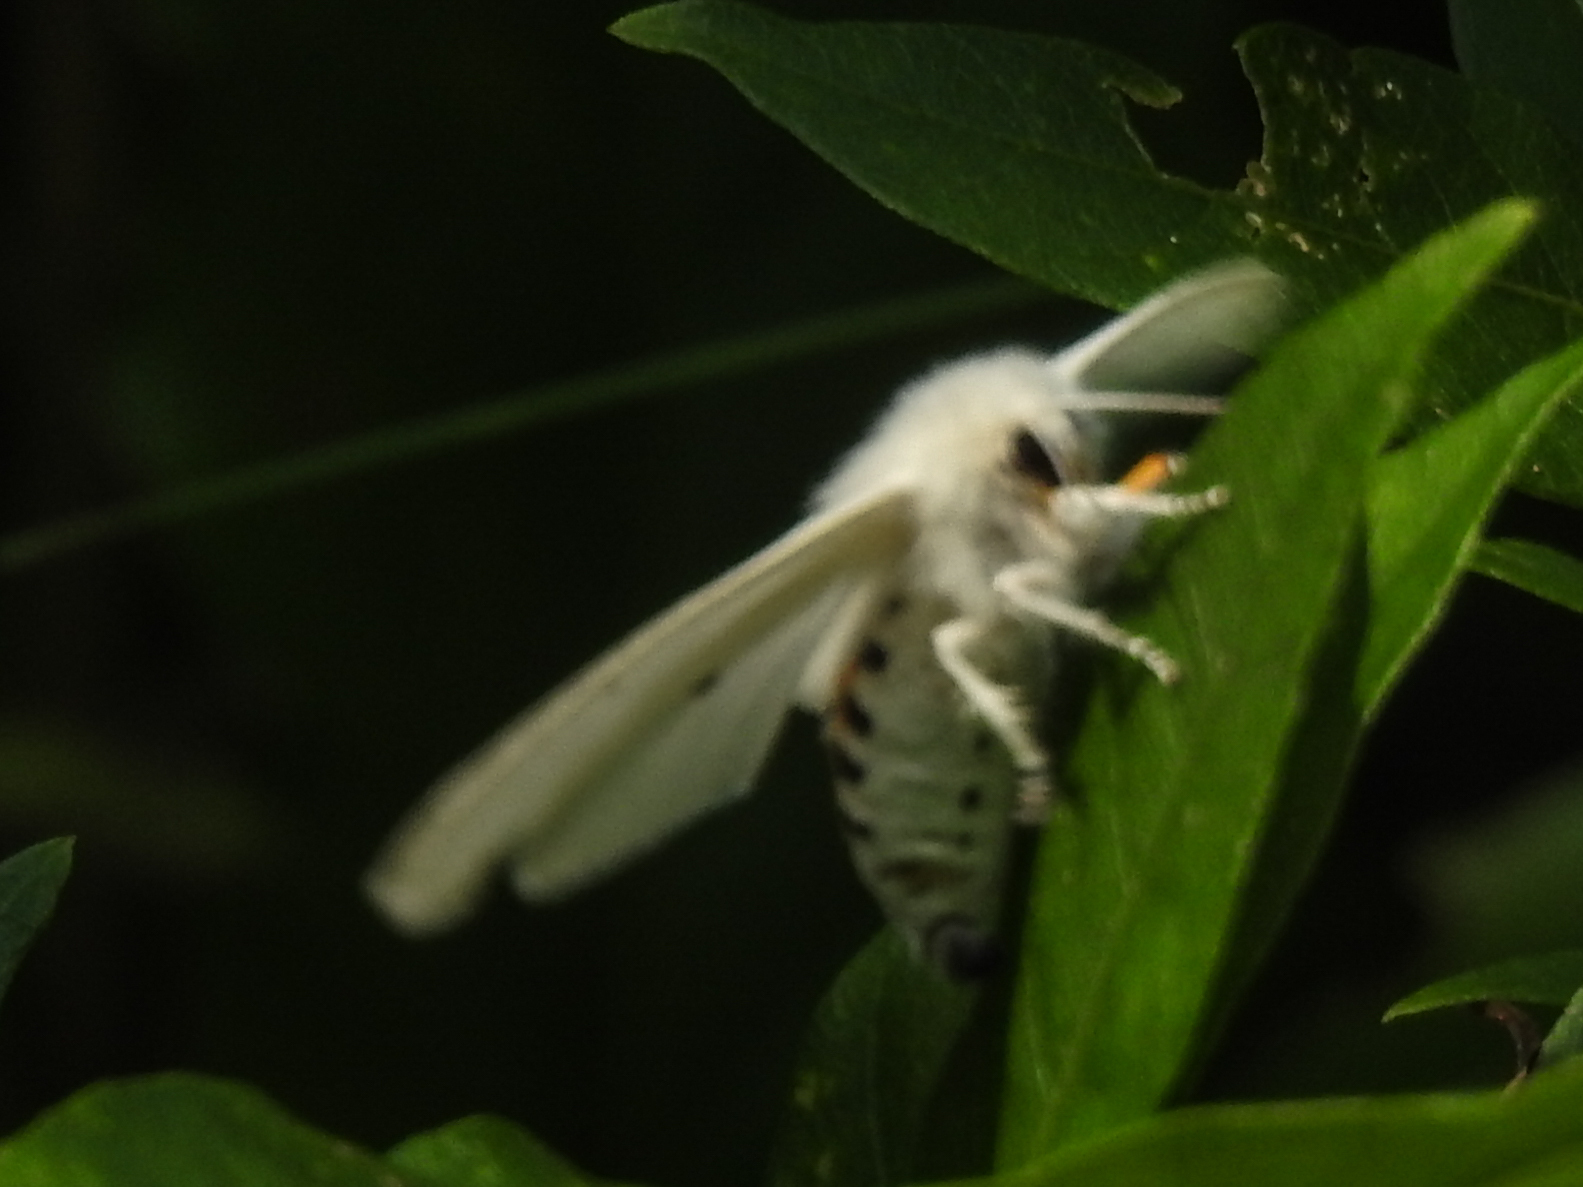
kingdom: Animalia
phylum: Arthropoda
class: Insecta
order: Lepidoptera
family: Erebidae
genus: Spilosoma
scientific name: Spilosoma virginica
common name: Virginia tiger moth
